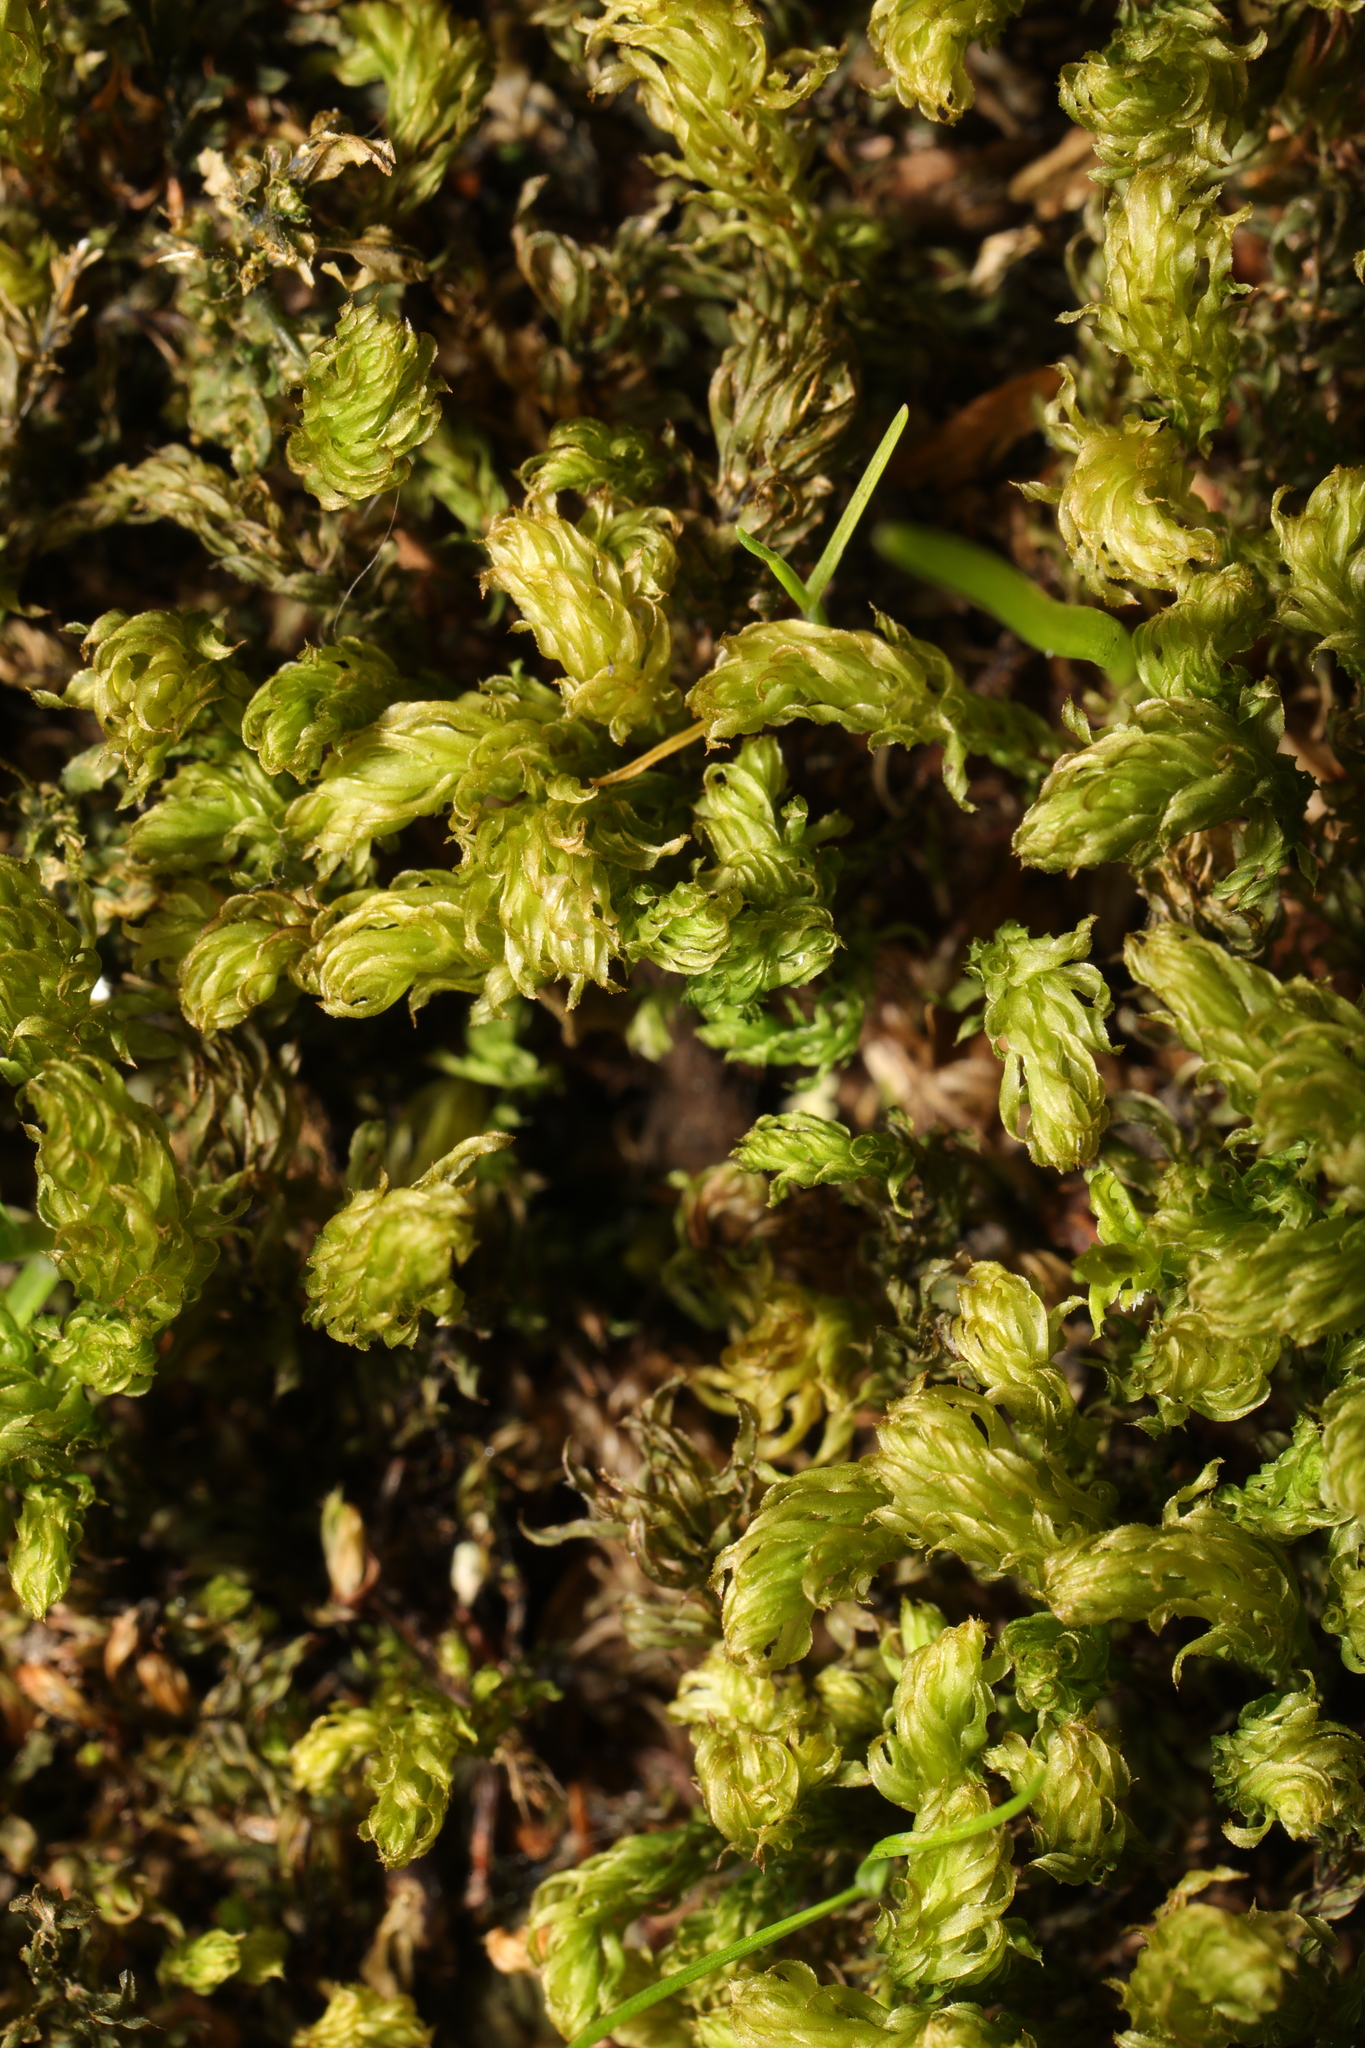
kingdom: Plantae
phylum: Bryophyta
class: Bryopsida
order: Bryales
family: Mniaceae
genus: Mnium
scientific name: Mnium hornum
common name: Swan's-neck leafy moss
